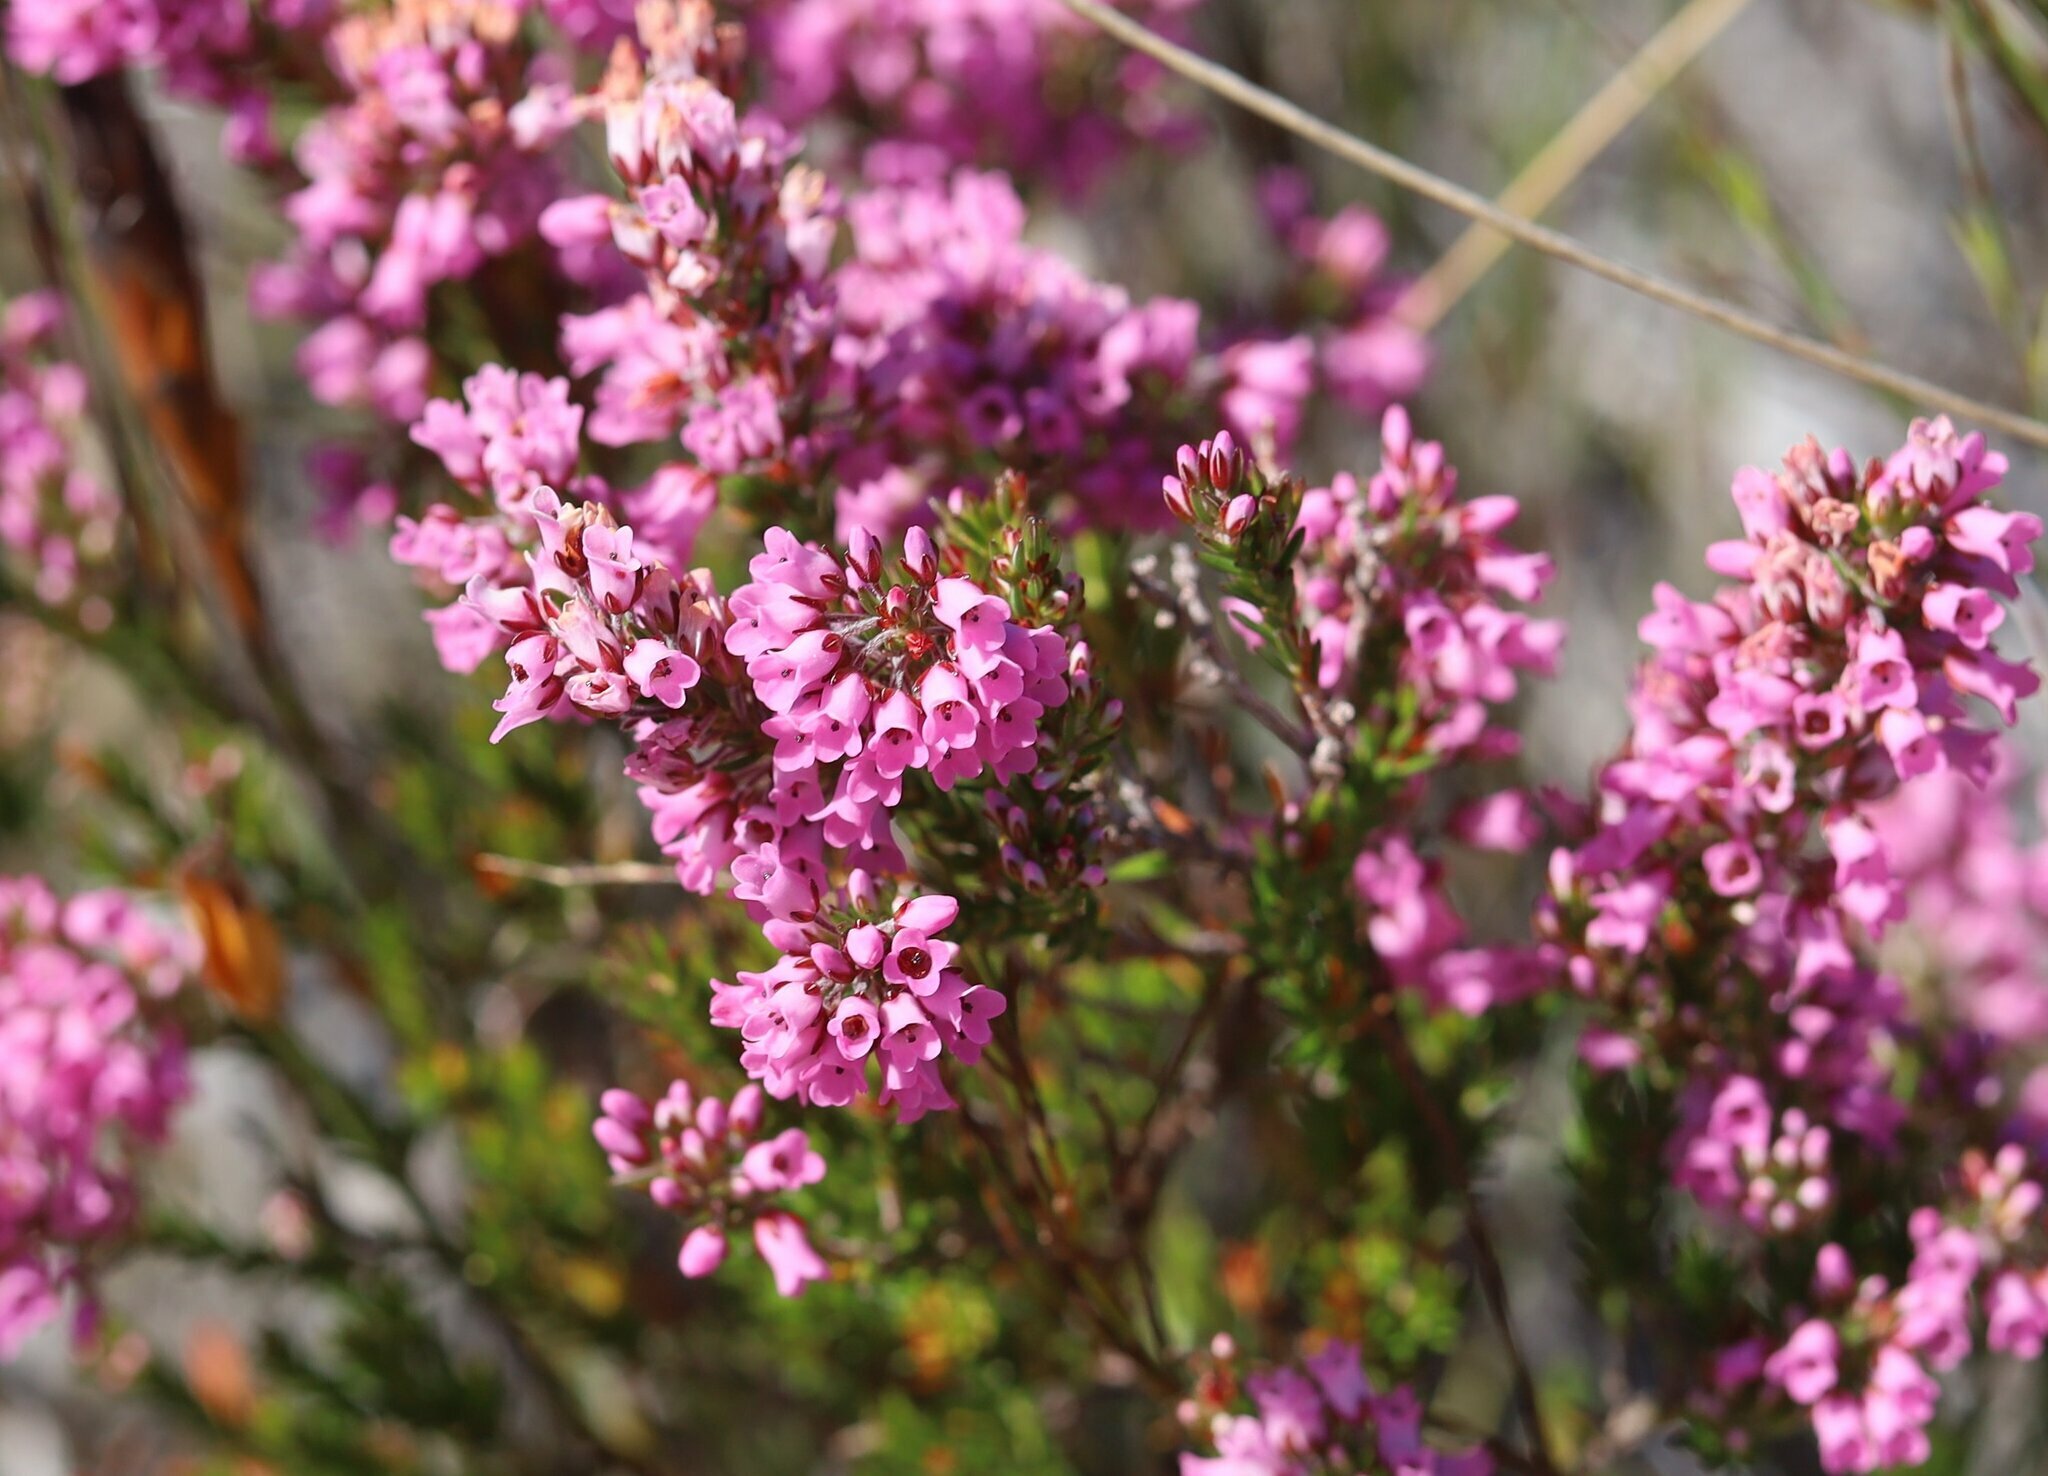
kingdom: Plantae
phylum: Tracheophyta
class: Magnoliopsida
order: Ericales
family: Ericaceae
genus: Erica
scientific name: Erica pulchella
